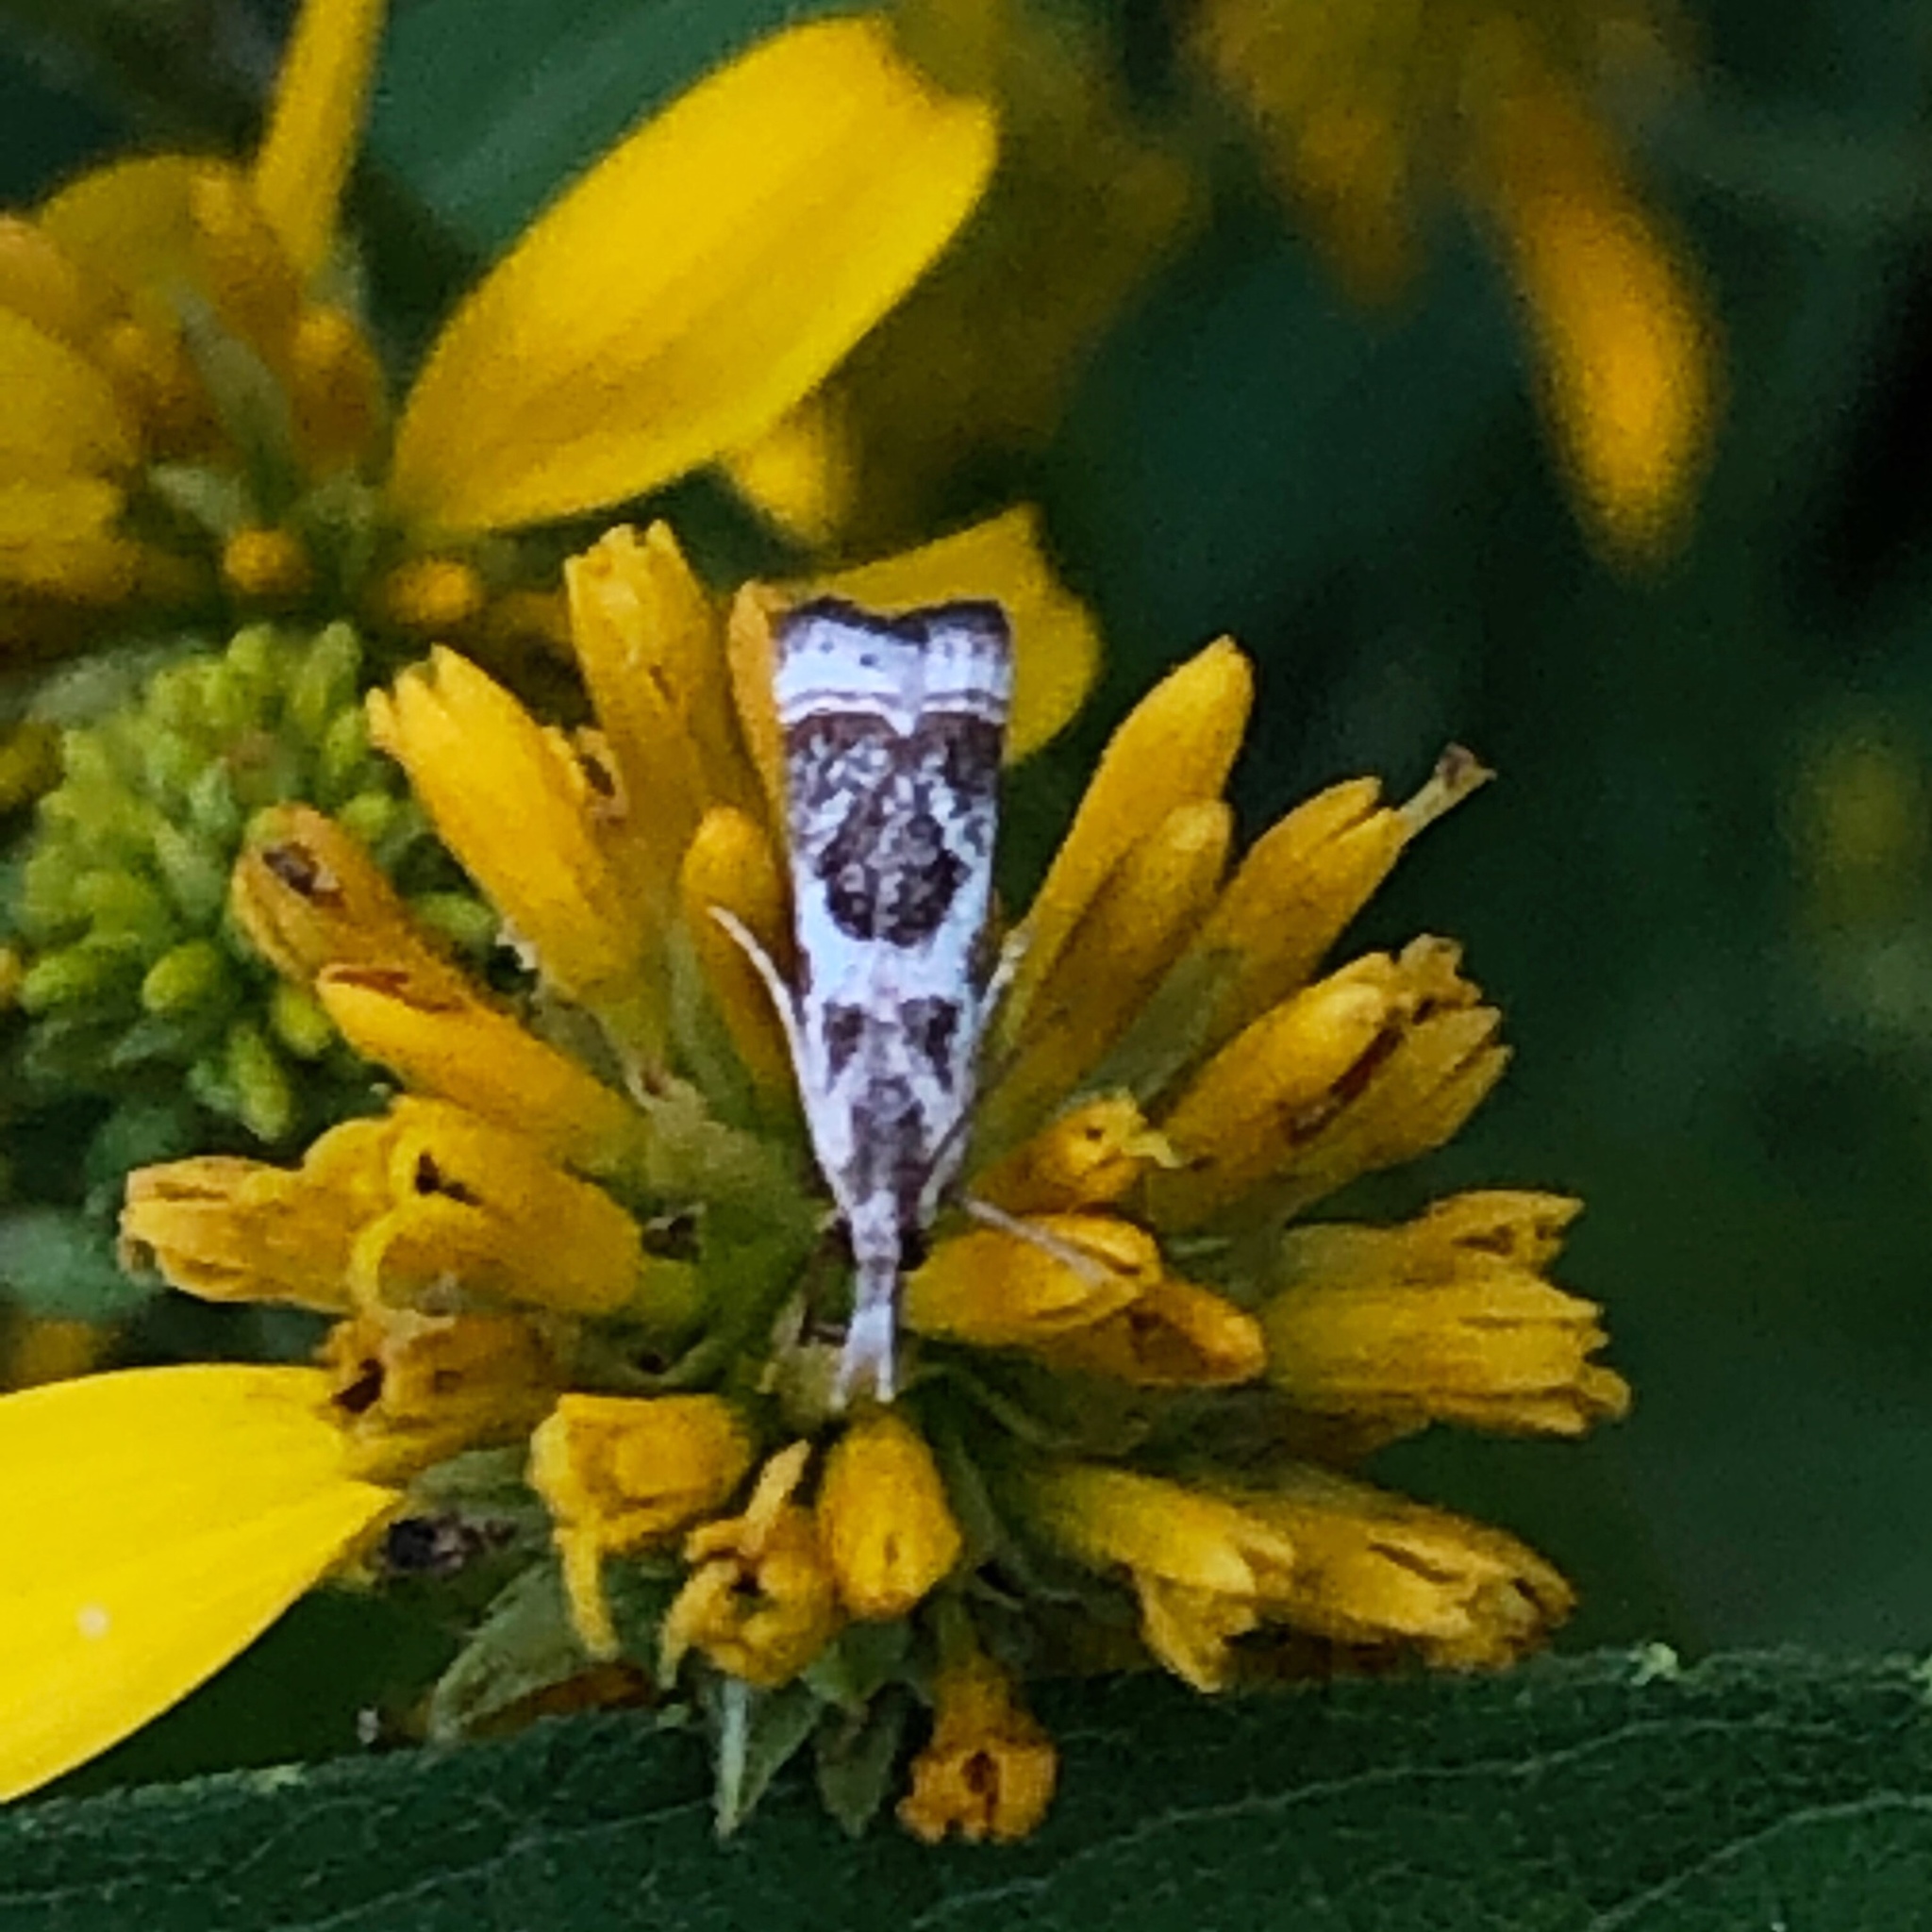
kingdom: Animalia
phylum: Arthropoda
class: Insecta
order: Lepidoptera
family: Crambidae
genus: Microcrambus
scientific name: Microcrambus elegans
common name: Elegant grass-veneer
